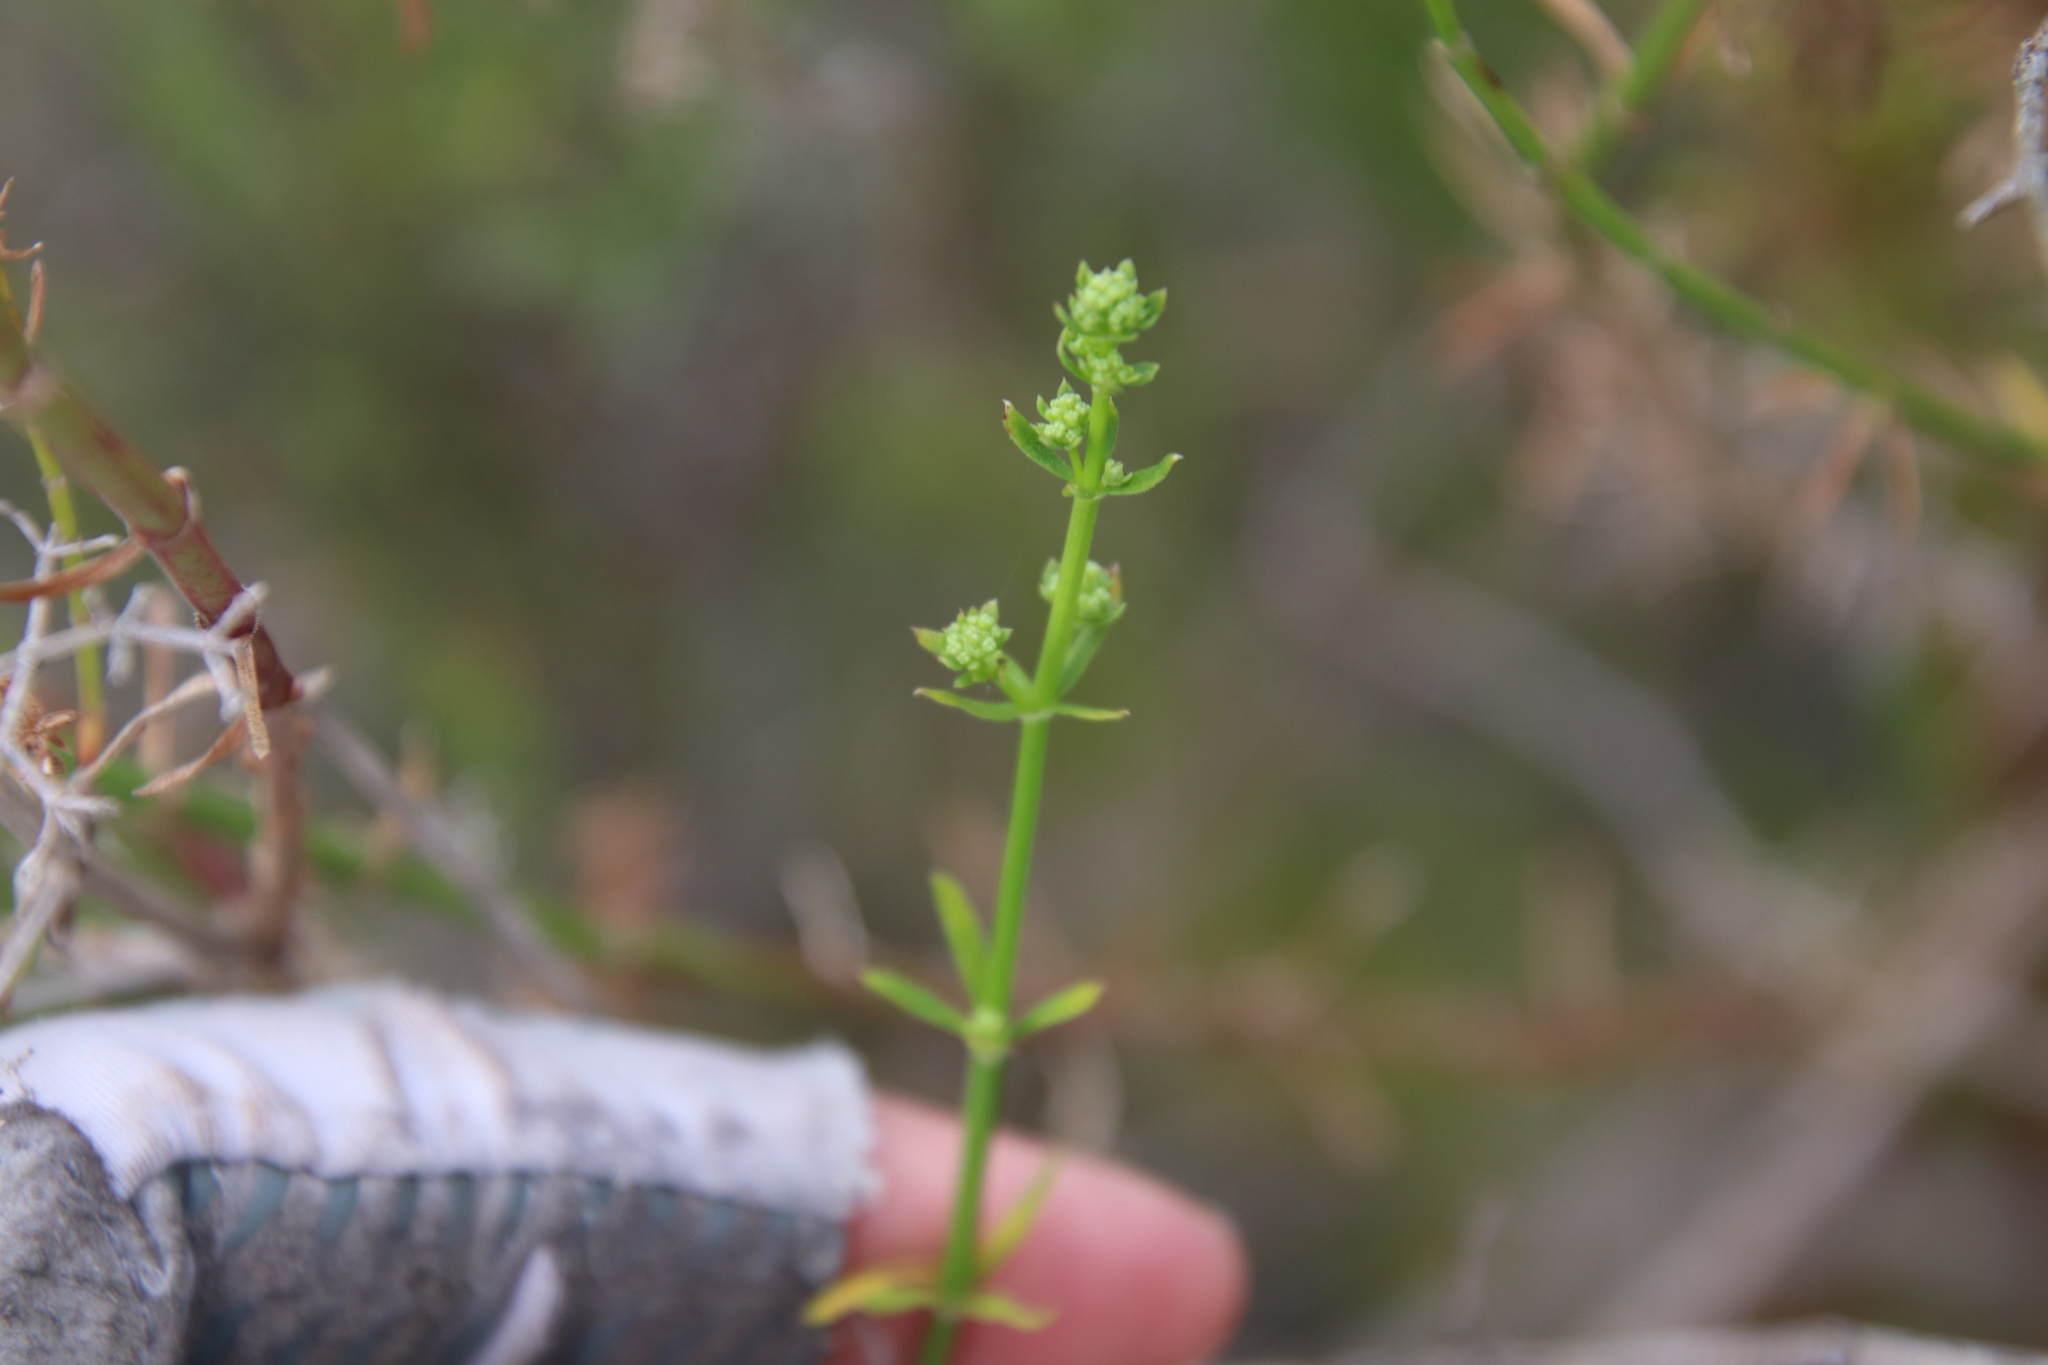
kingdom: Plantae
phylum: Tracheophyta
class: Magnoliopsida
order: Gentianales
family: Rubiaceae
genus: Galium
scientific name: Galium angustifolium
